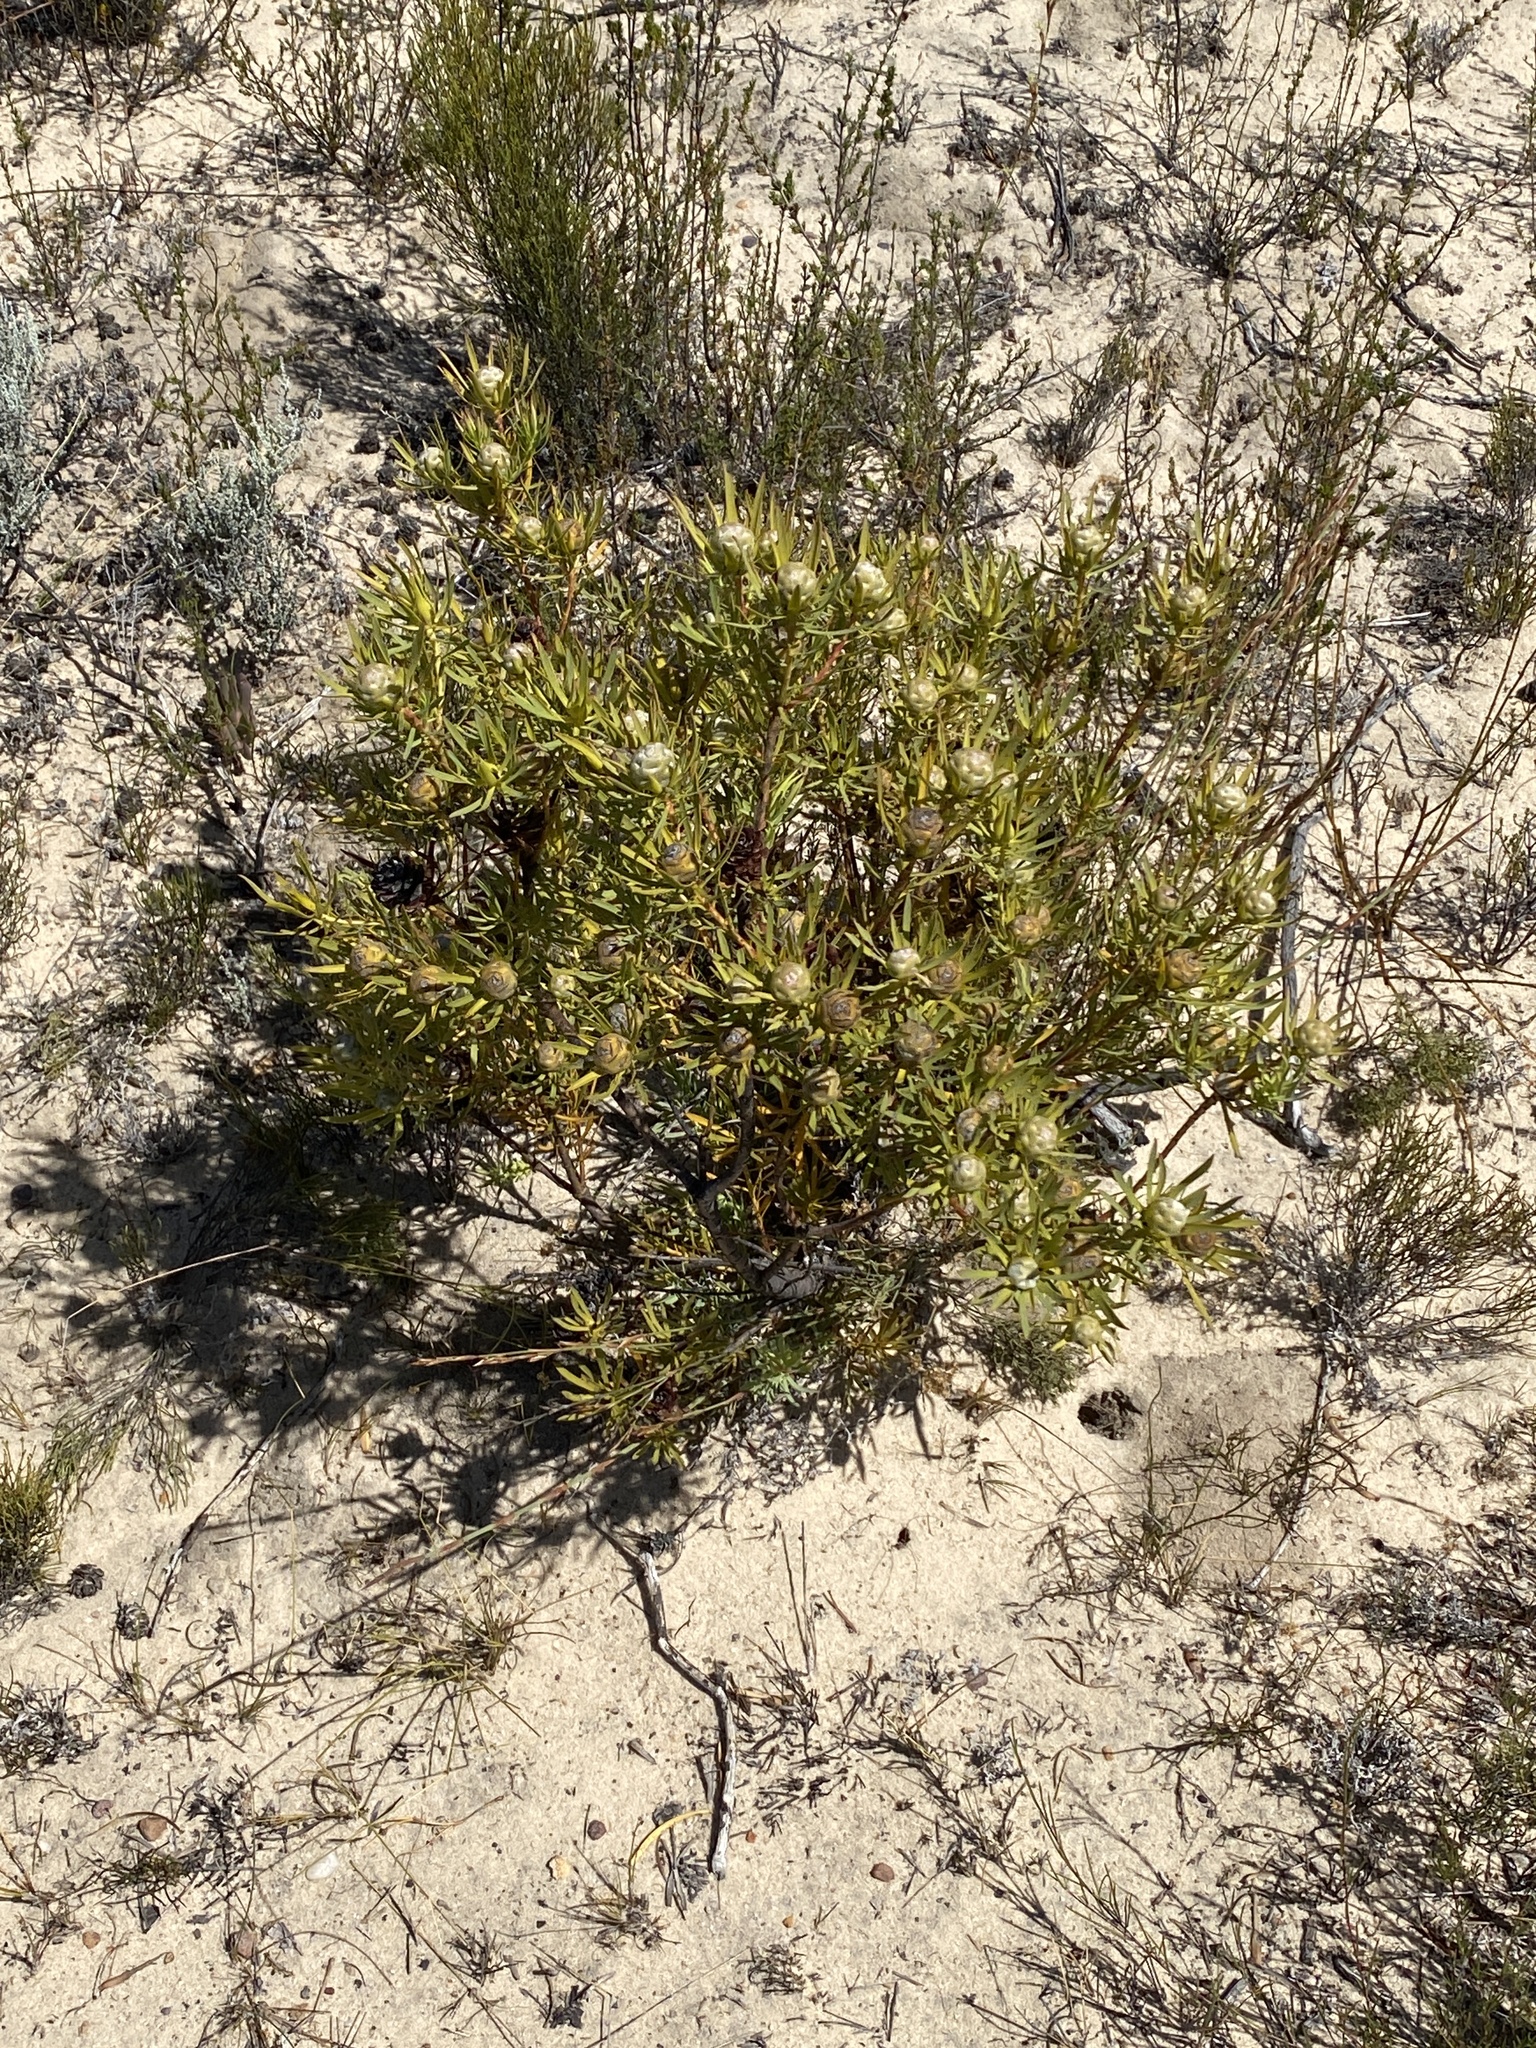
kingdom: Plantae
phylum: Tracheophyta
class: Magnoliopsida
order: Proteales
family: Proteaceae
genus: Leucadendron
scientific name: Leucadendron salignum
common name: Common sunshine conebush
